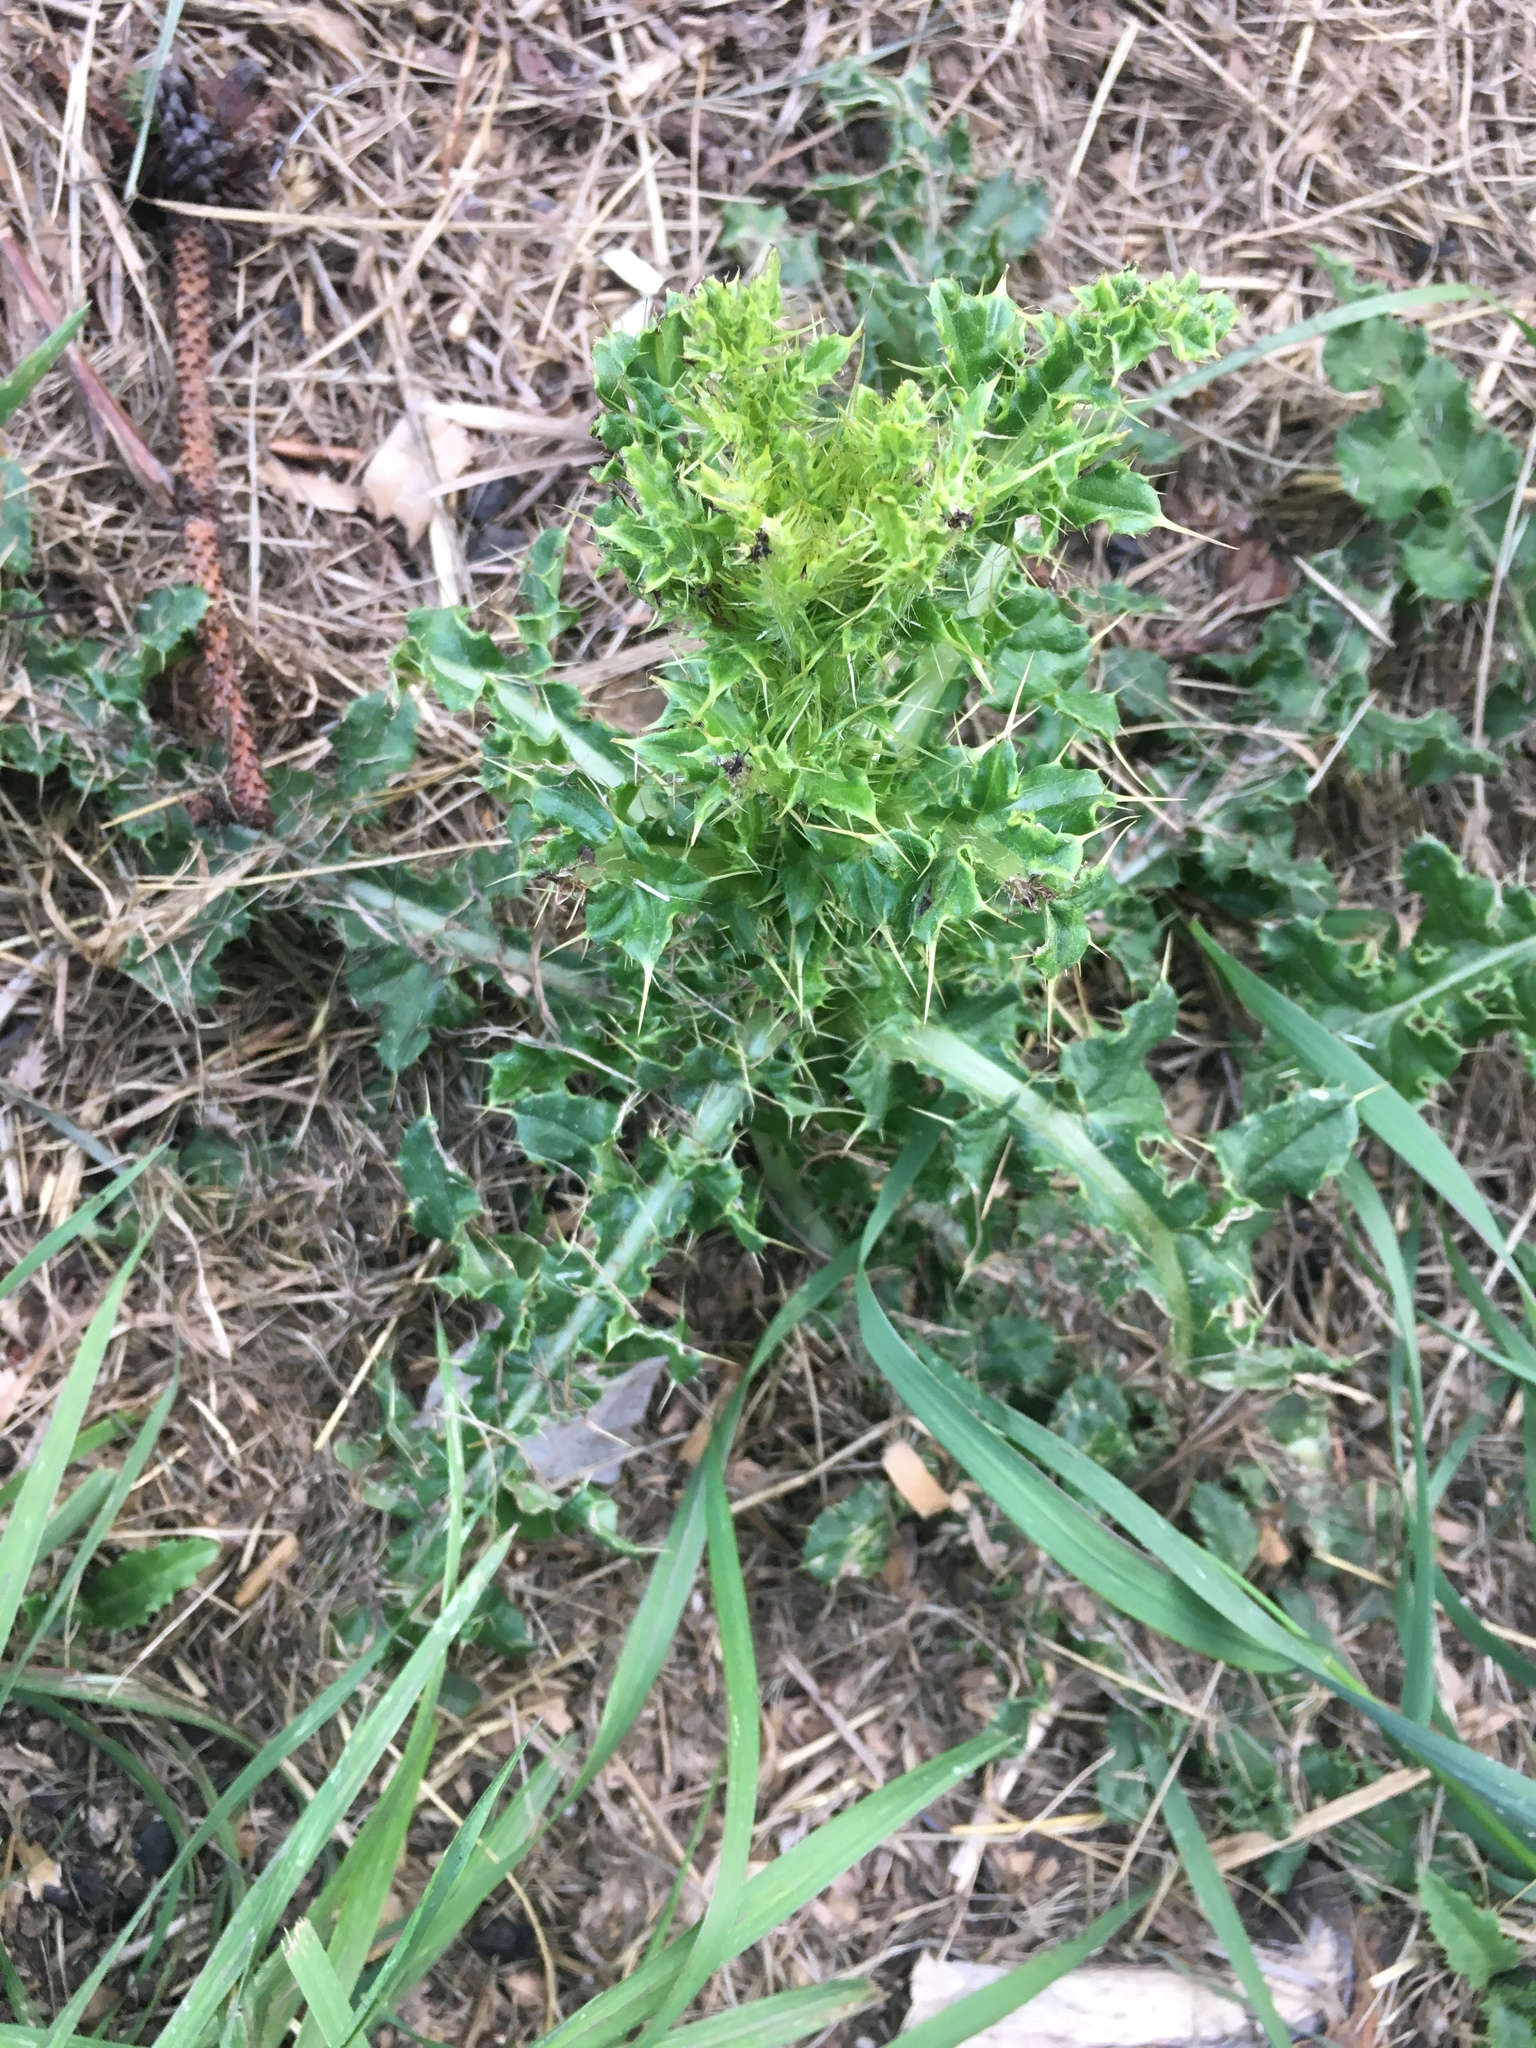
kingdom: Plantae
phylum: Tracheophyta
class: Magnoliopsida
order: Asterales
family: Asteraceae
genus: Cirsium
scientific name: Cirsium arvense
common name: Creeping thistle
